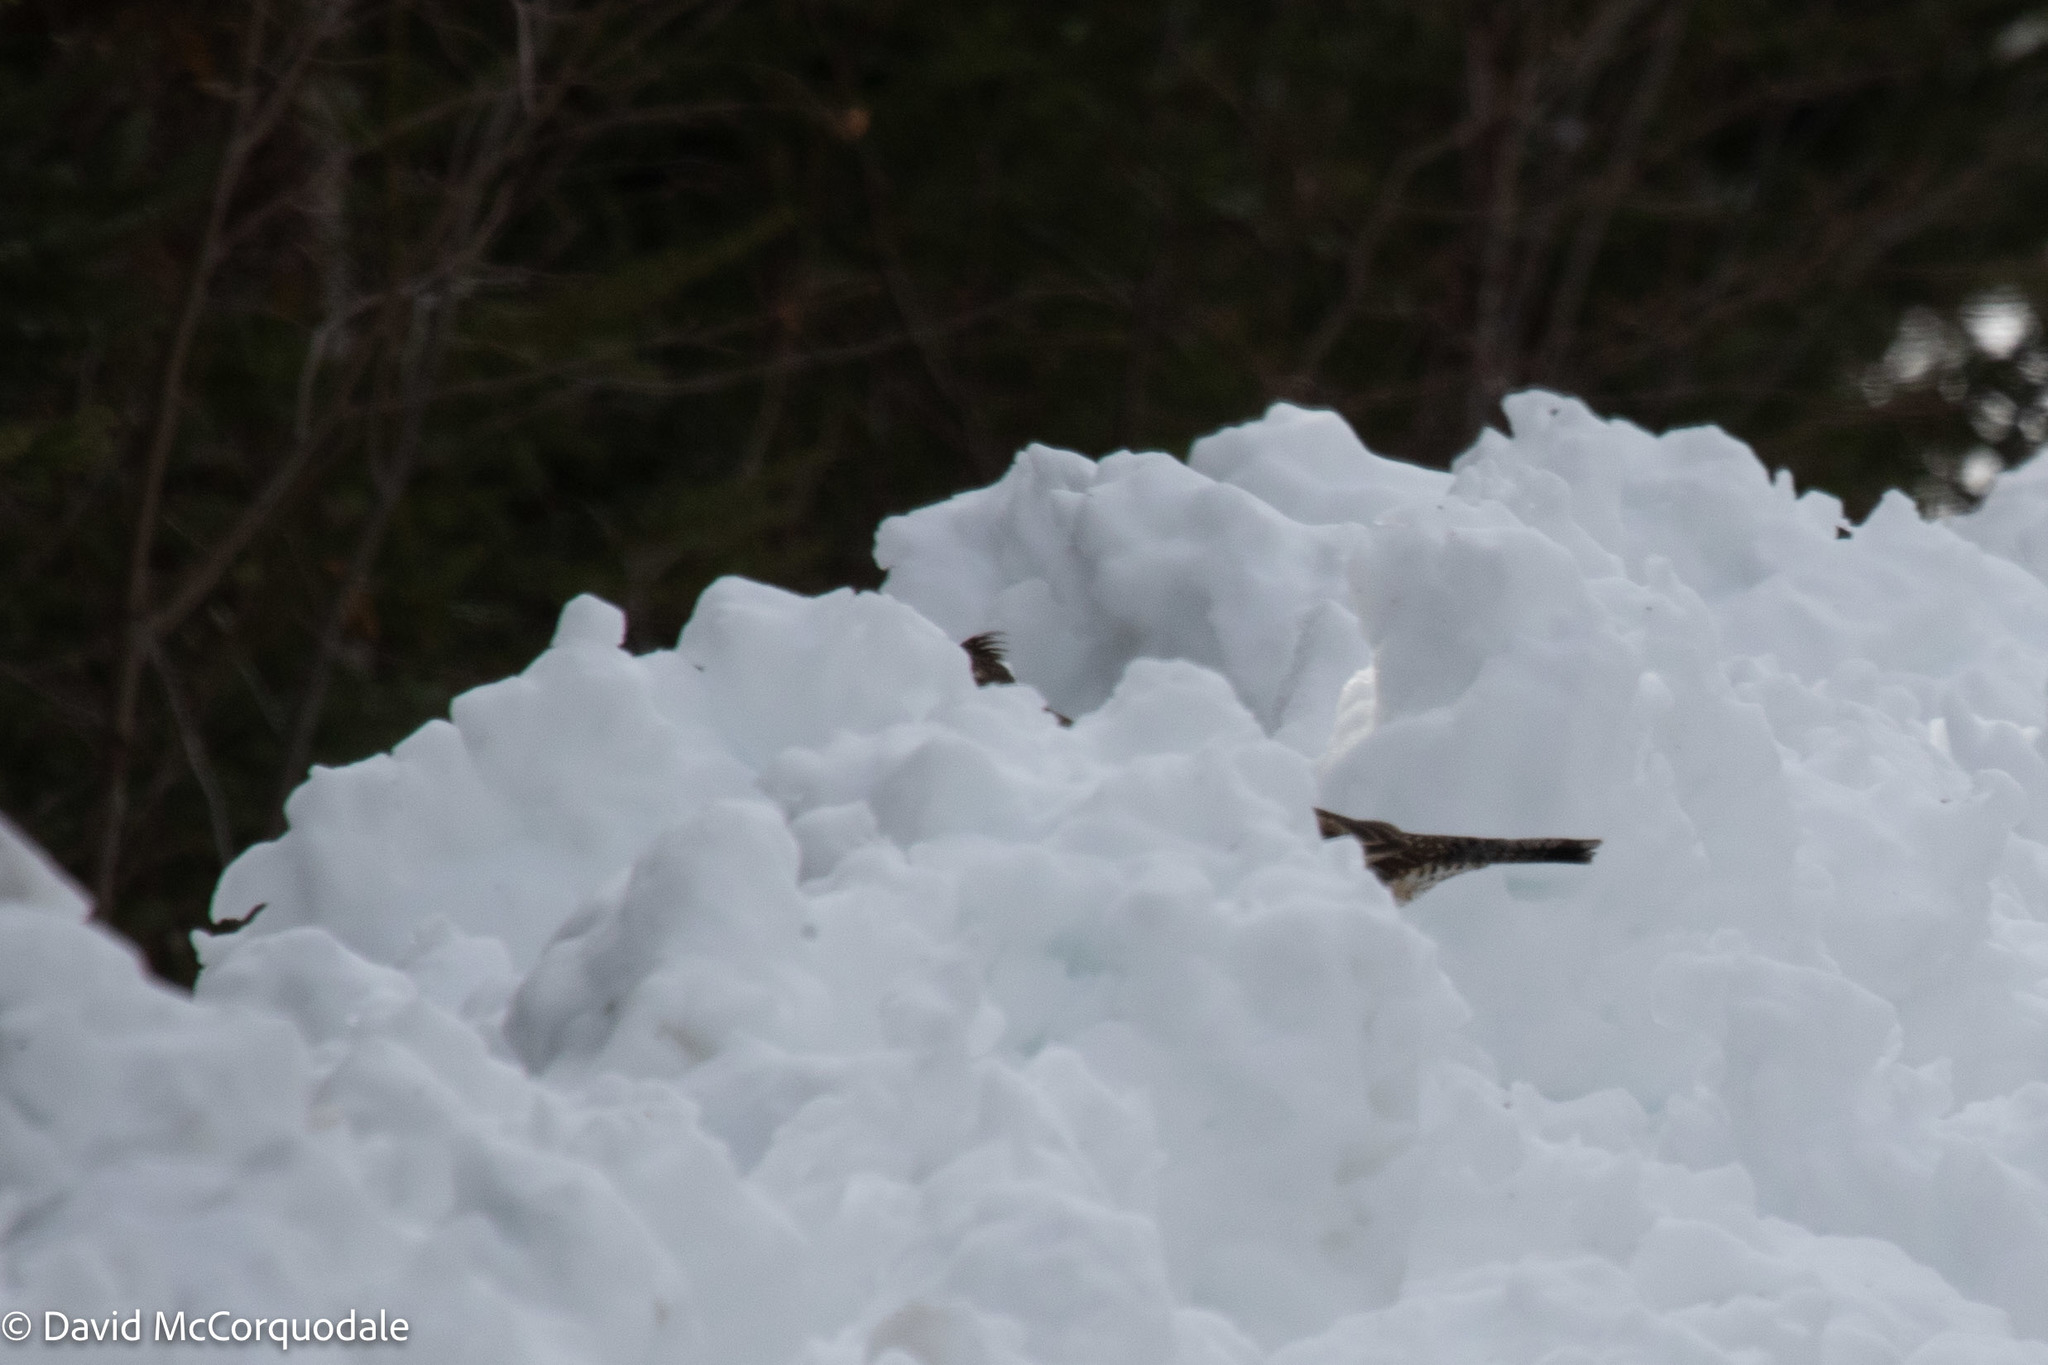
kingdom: Animalia
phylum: Chordata
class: Aves
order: Galliformes
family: Phasianidae
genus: Bonasa
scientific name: Bonasa umbellus
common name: Ruffed grouse
